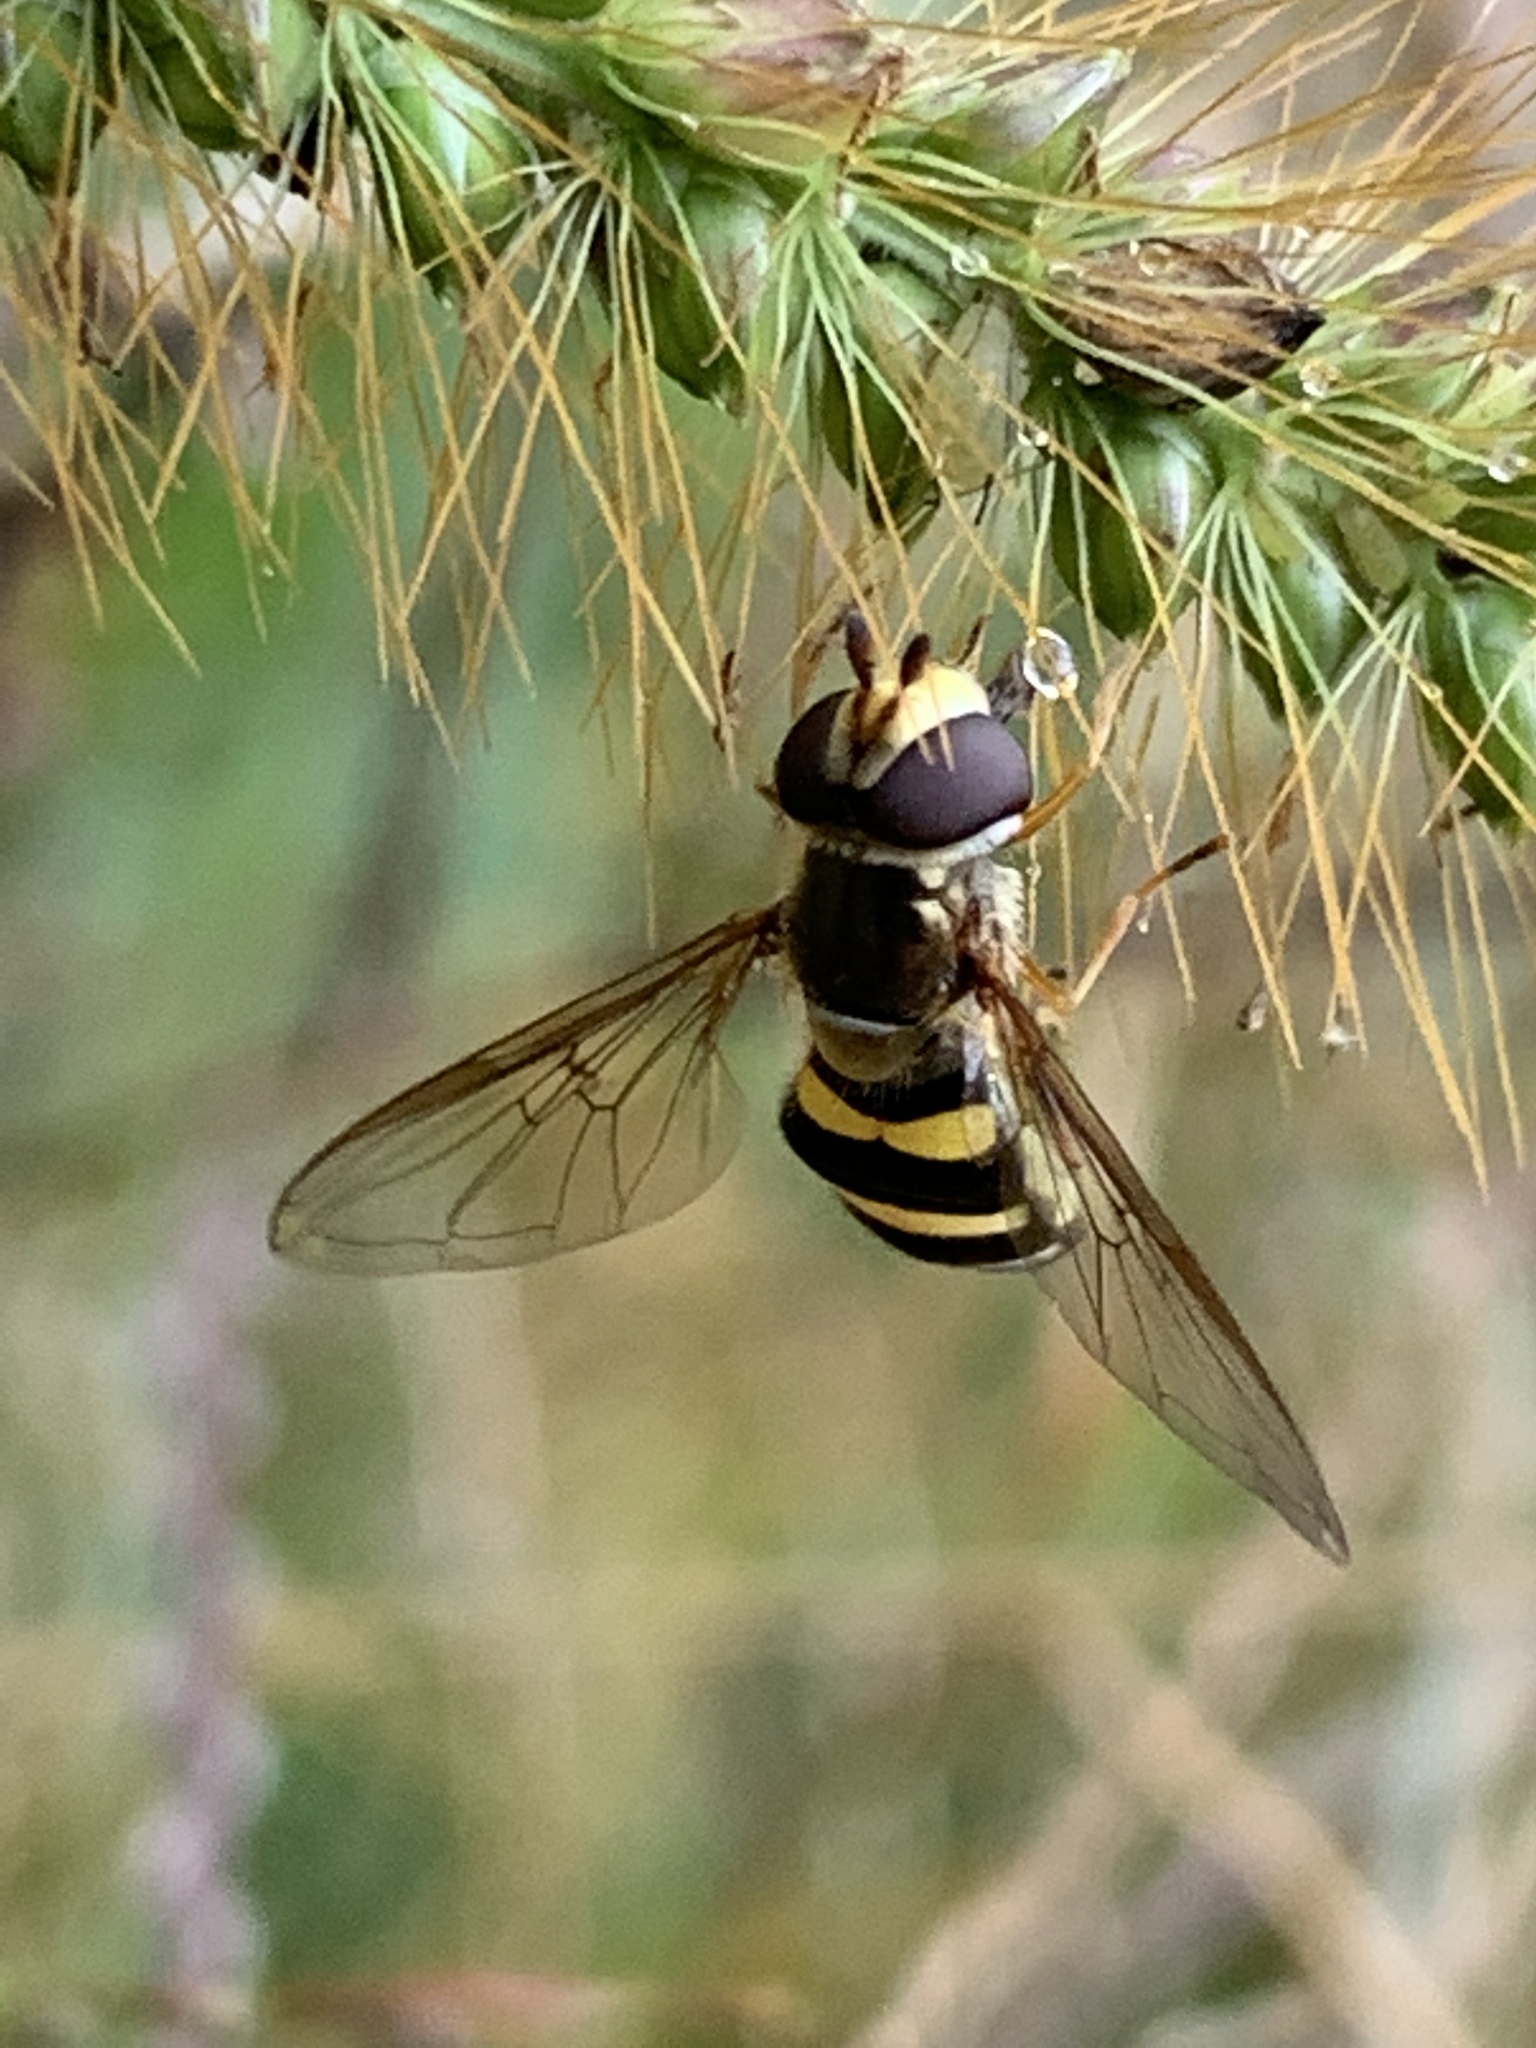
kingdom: Animalia
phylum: Arthropoda
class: Insecta
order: Diptera
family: Syrphidae
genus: Eupeodes
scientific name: Eupeodes
